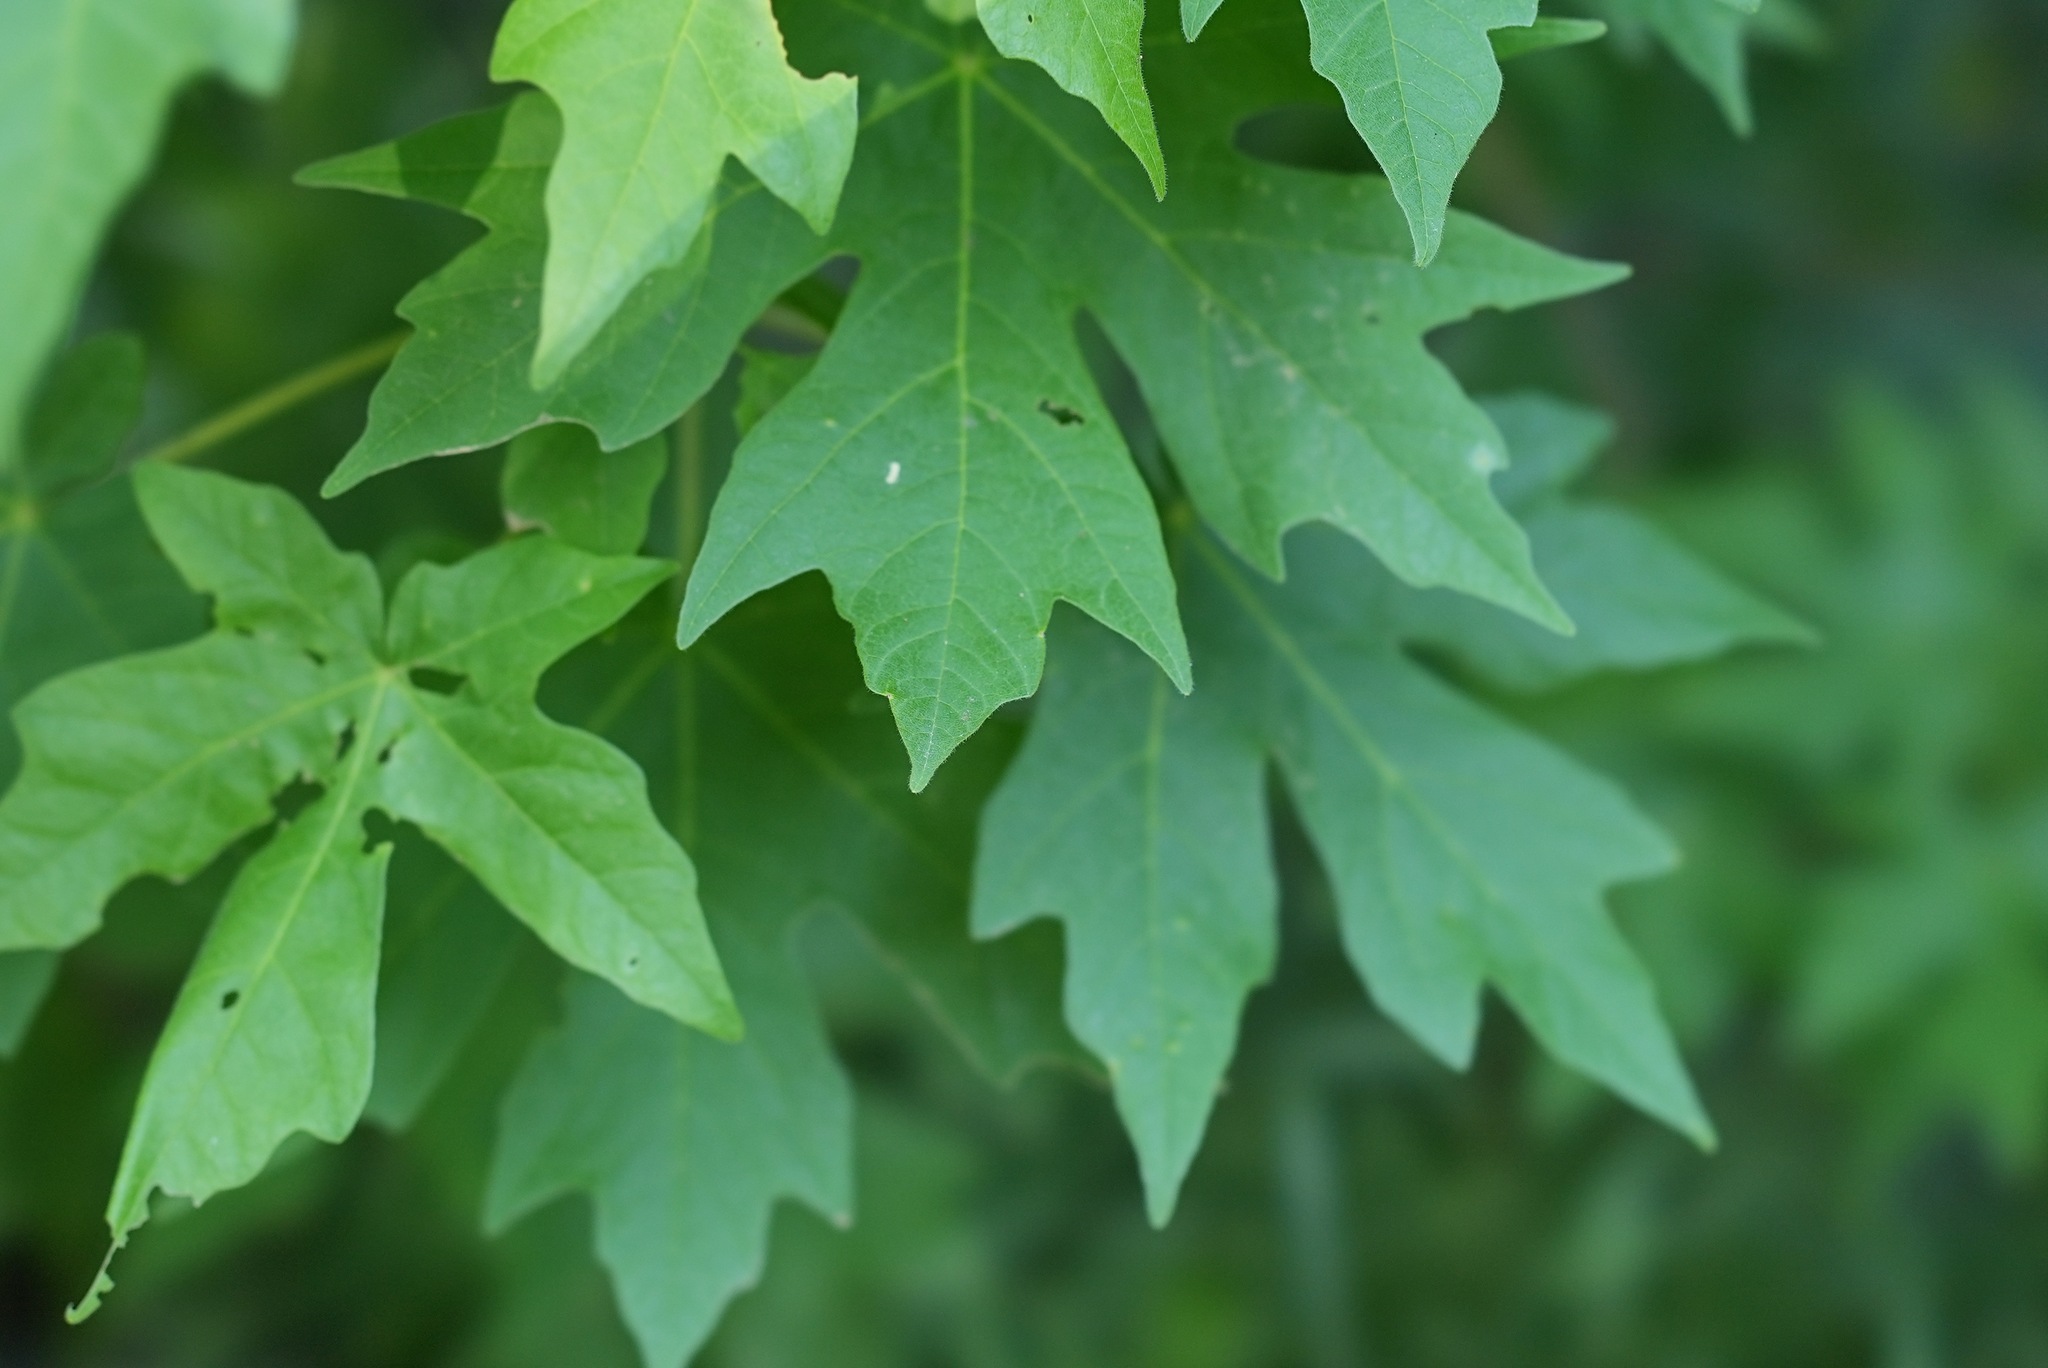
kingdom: Plantae
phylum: Tracheophyta
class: Magnoliopsida
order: Sapindales
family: Sapindaceae
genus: Acer
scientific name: Acer macrophyllum
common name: Oregon maple
